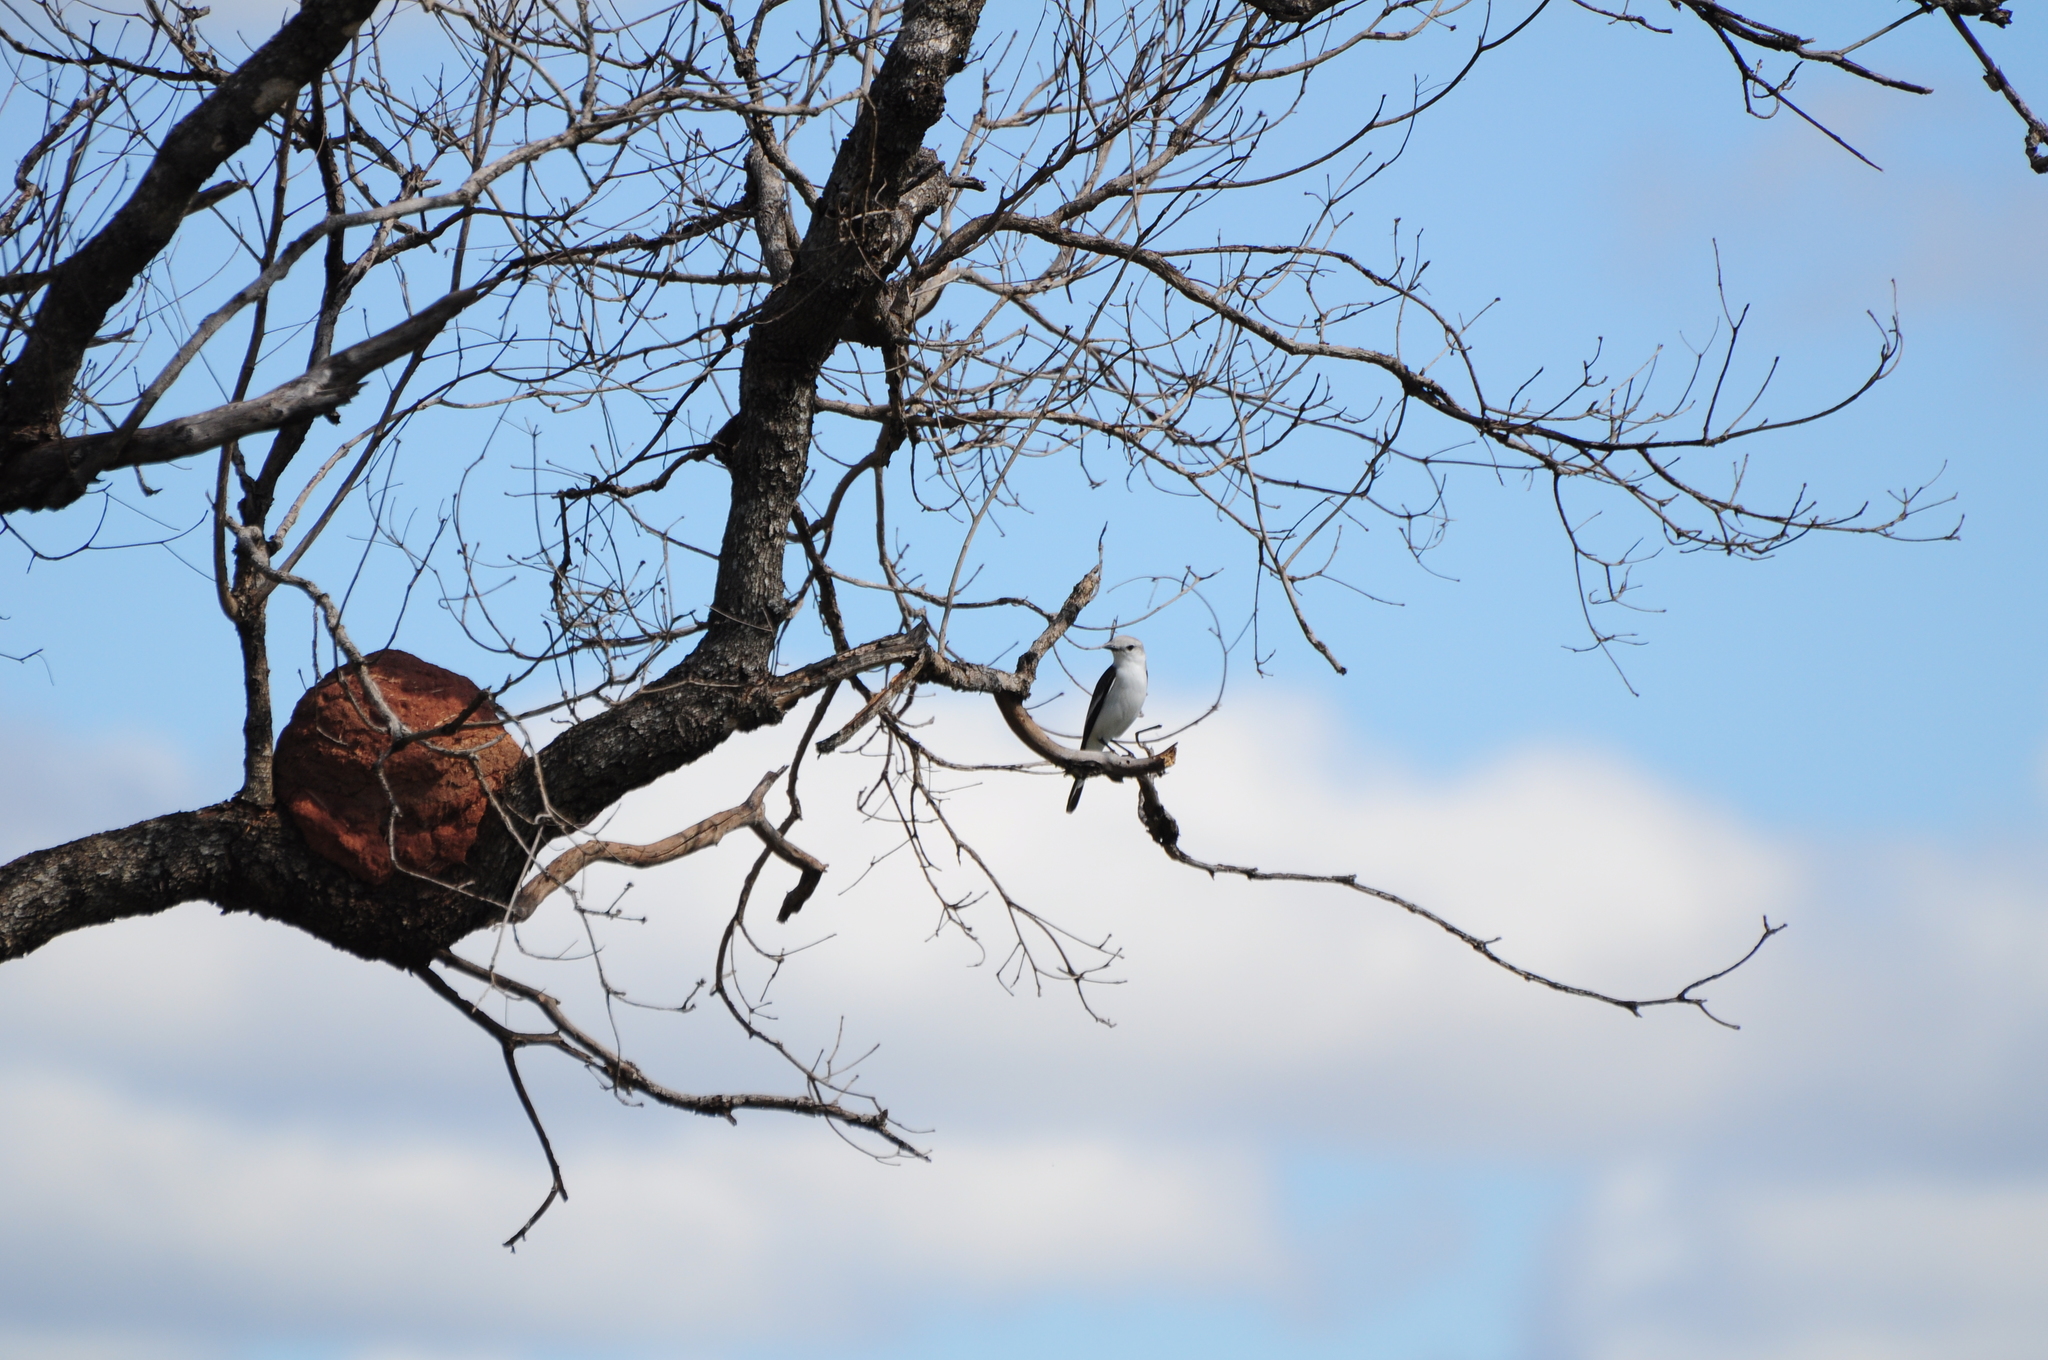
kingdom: Animalia
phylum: Chordata
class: Aves
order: Passeriformes
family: Tyrannidae
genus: Xolmis
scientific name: Xolmis velatus
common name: White-rumped monjita
